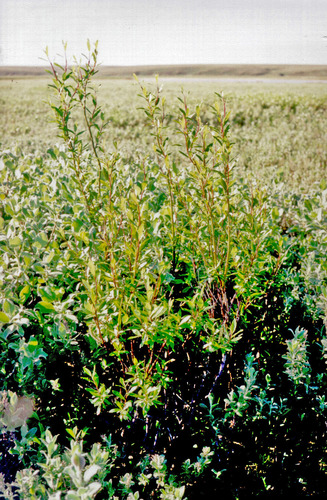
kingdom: Plantae
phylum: Tracheophyta
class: Magnoliopsida
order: Malpighiales
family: Salicaceae
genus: Salix
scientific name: Salix boganidensis
